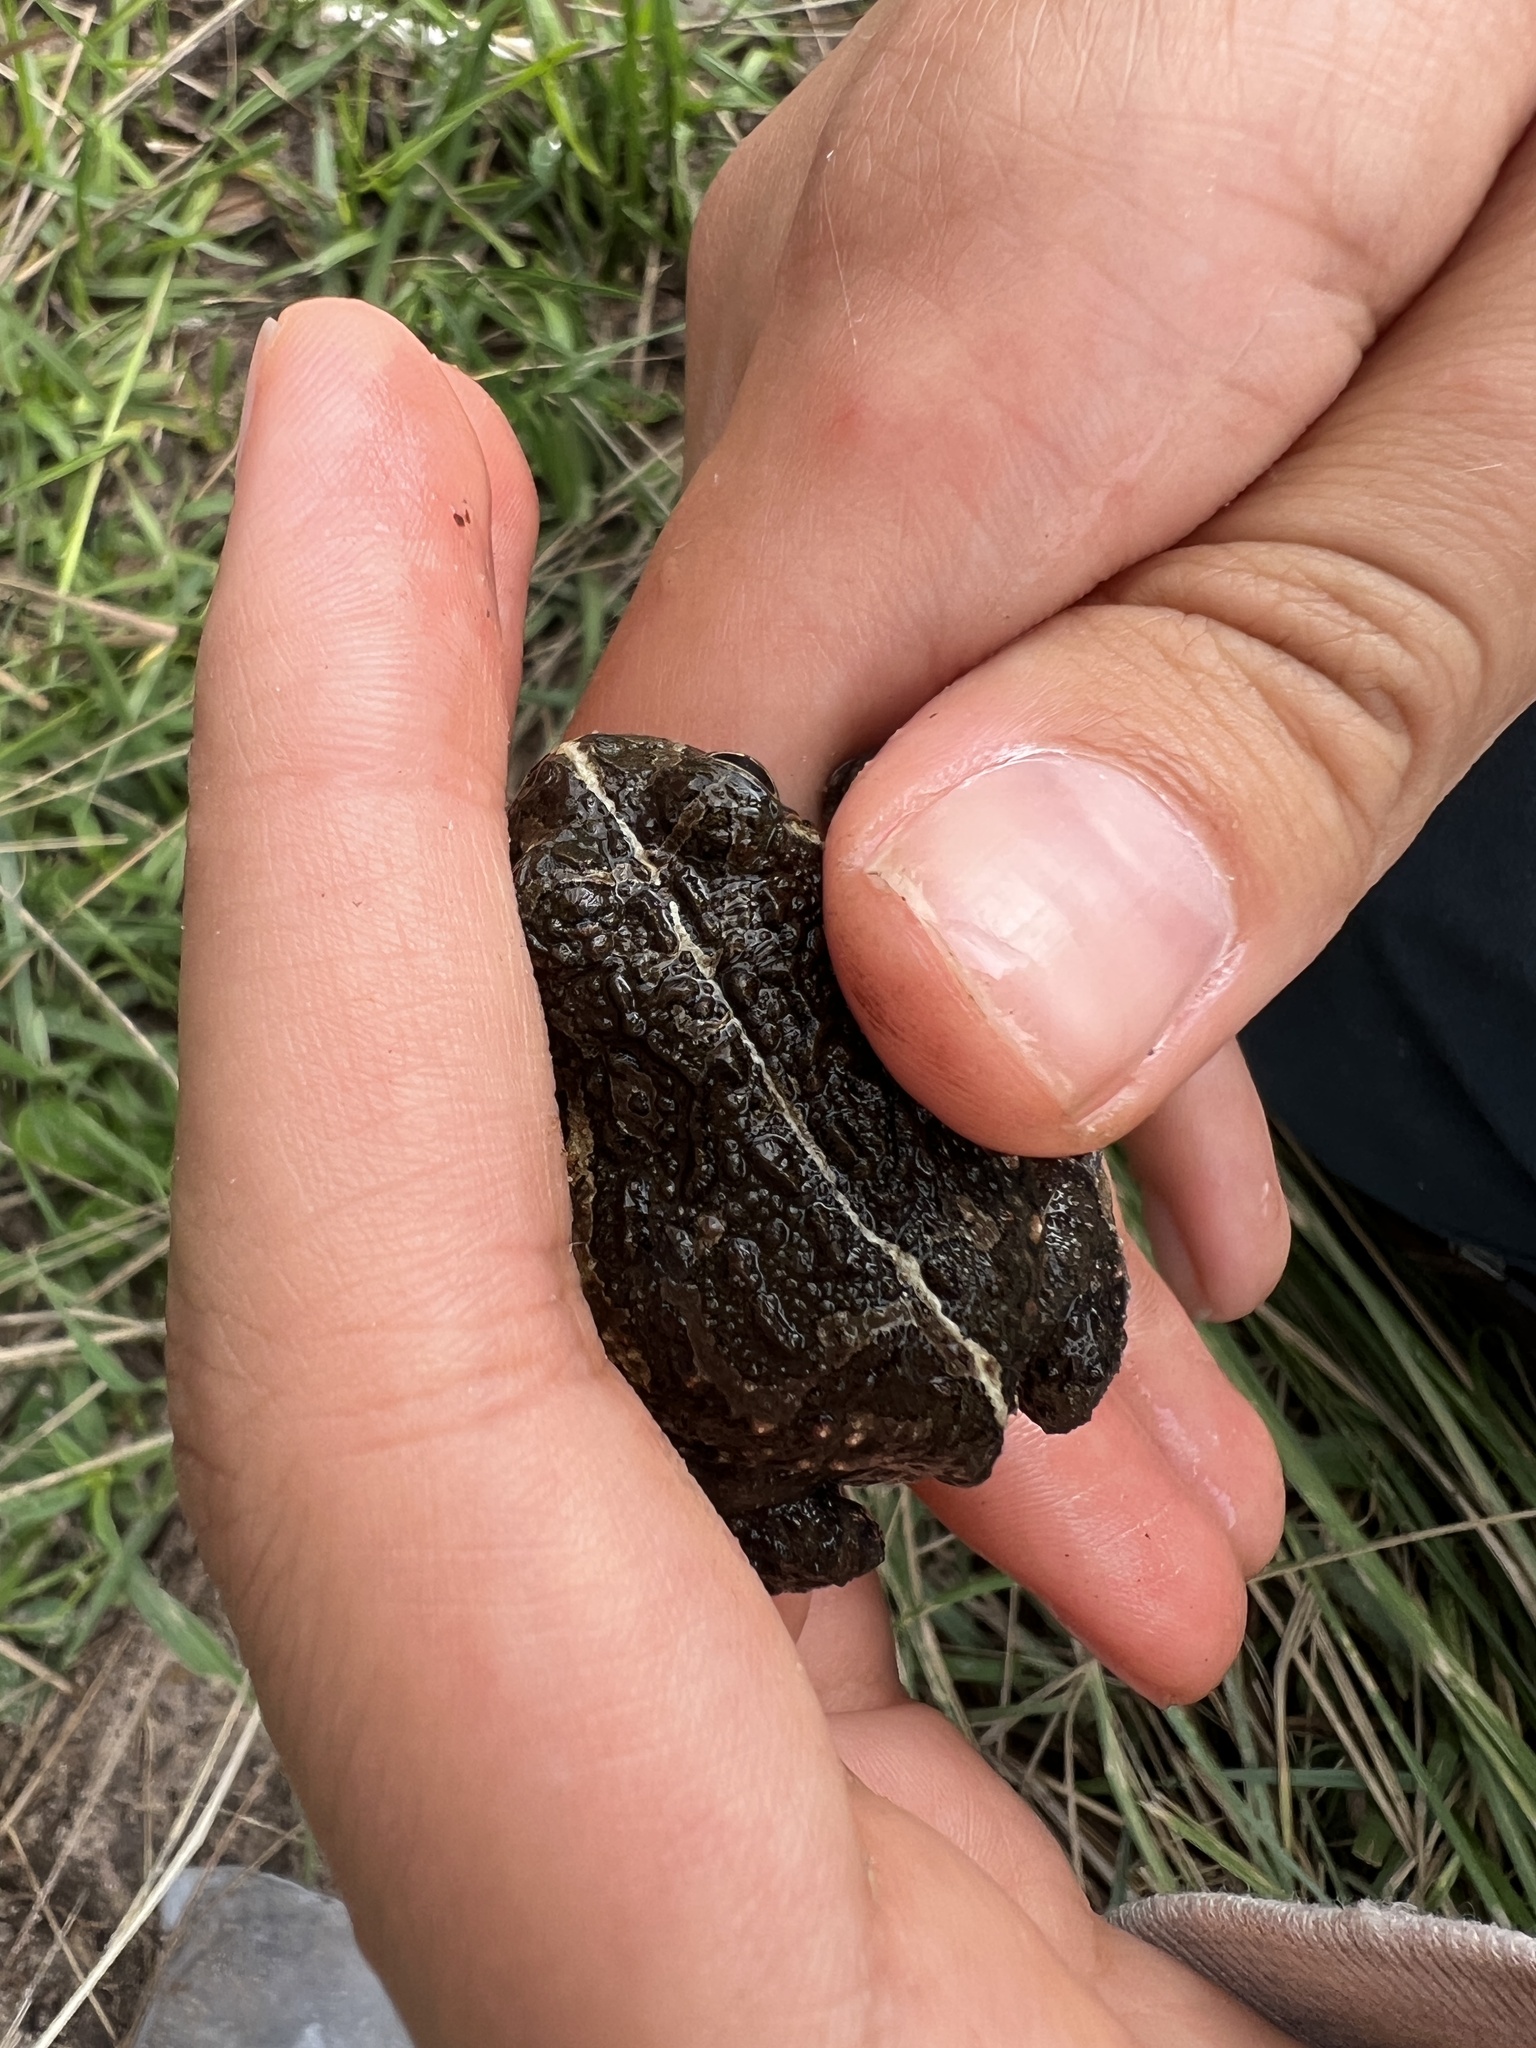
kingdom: Animalia
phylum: Chordata
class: Amphibia
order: Anura
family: Odontophrynidae
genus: Odontophrynus
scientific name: Odontophrynus
